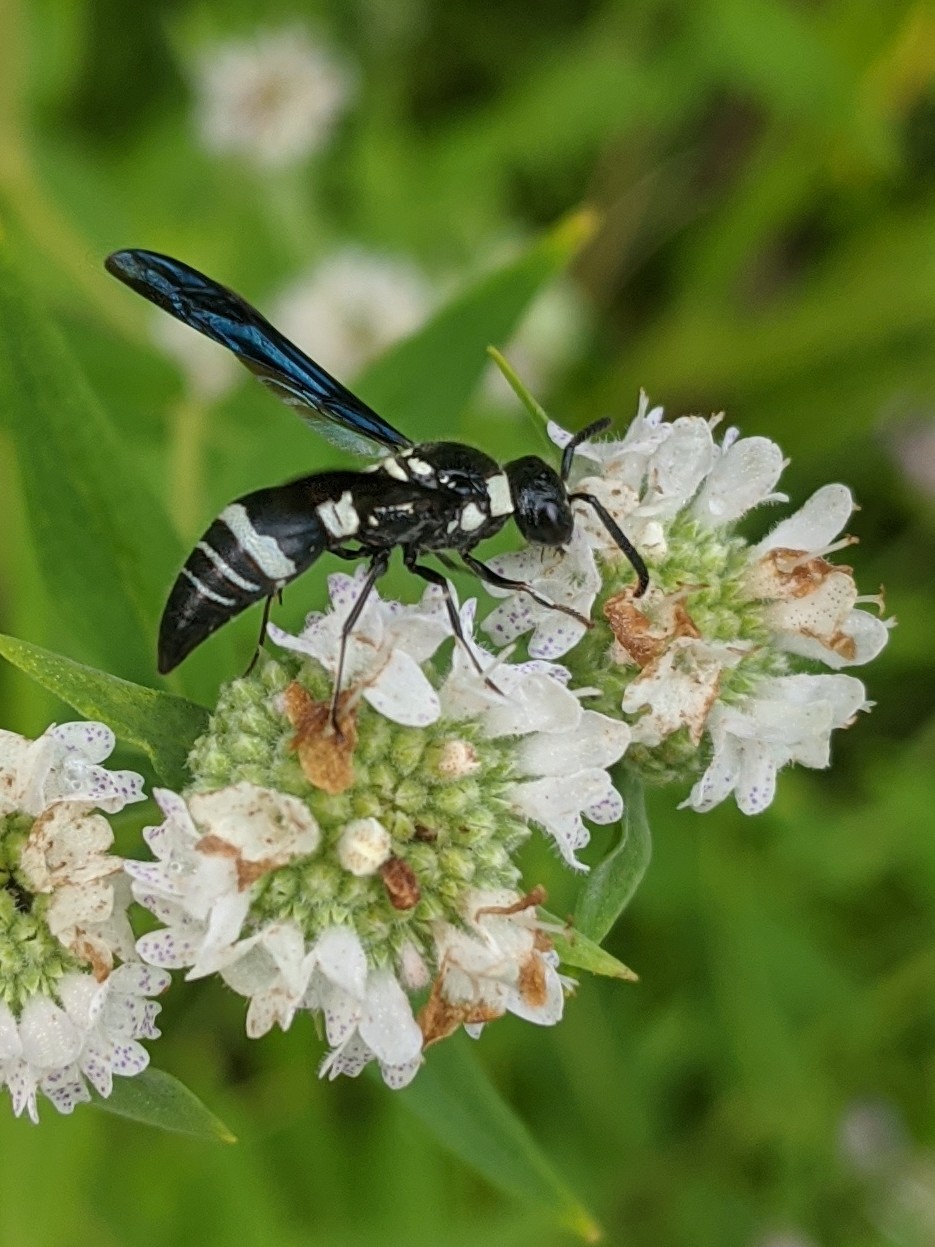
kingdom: Animalia
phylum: Arthropoda
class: Insecta
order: Hymenoptera
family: Eumenidae
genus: Pseudodynerus
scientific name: Pseudodynerus quadrisectus
